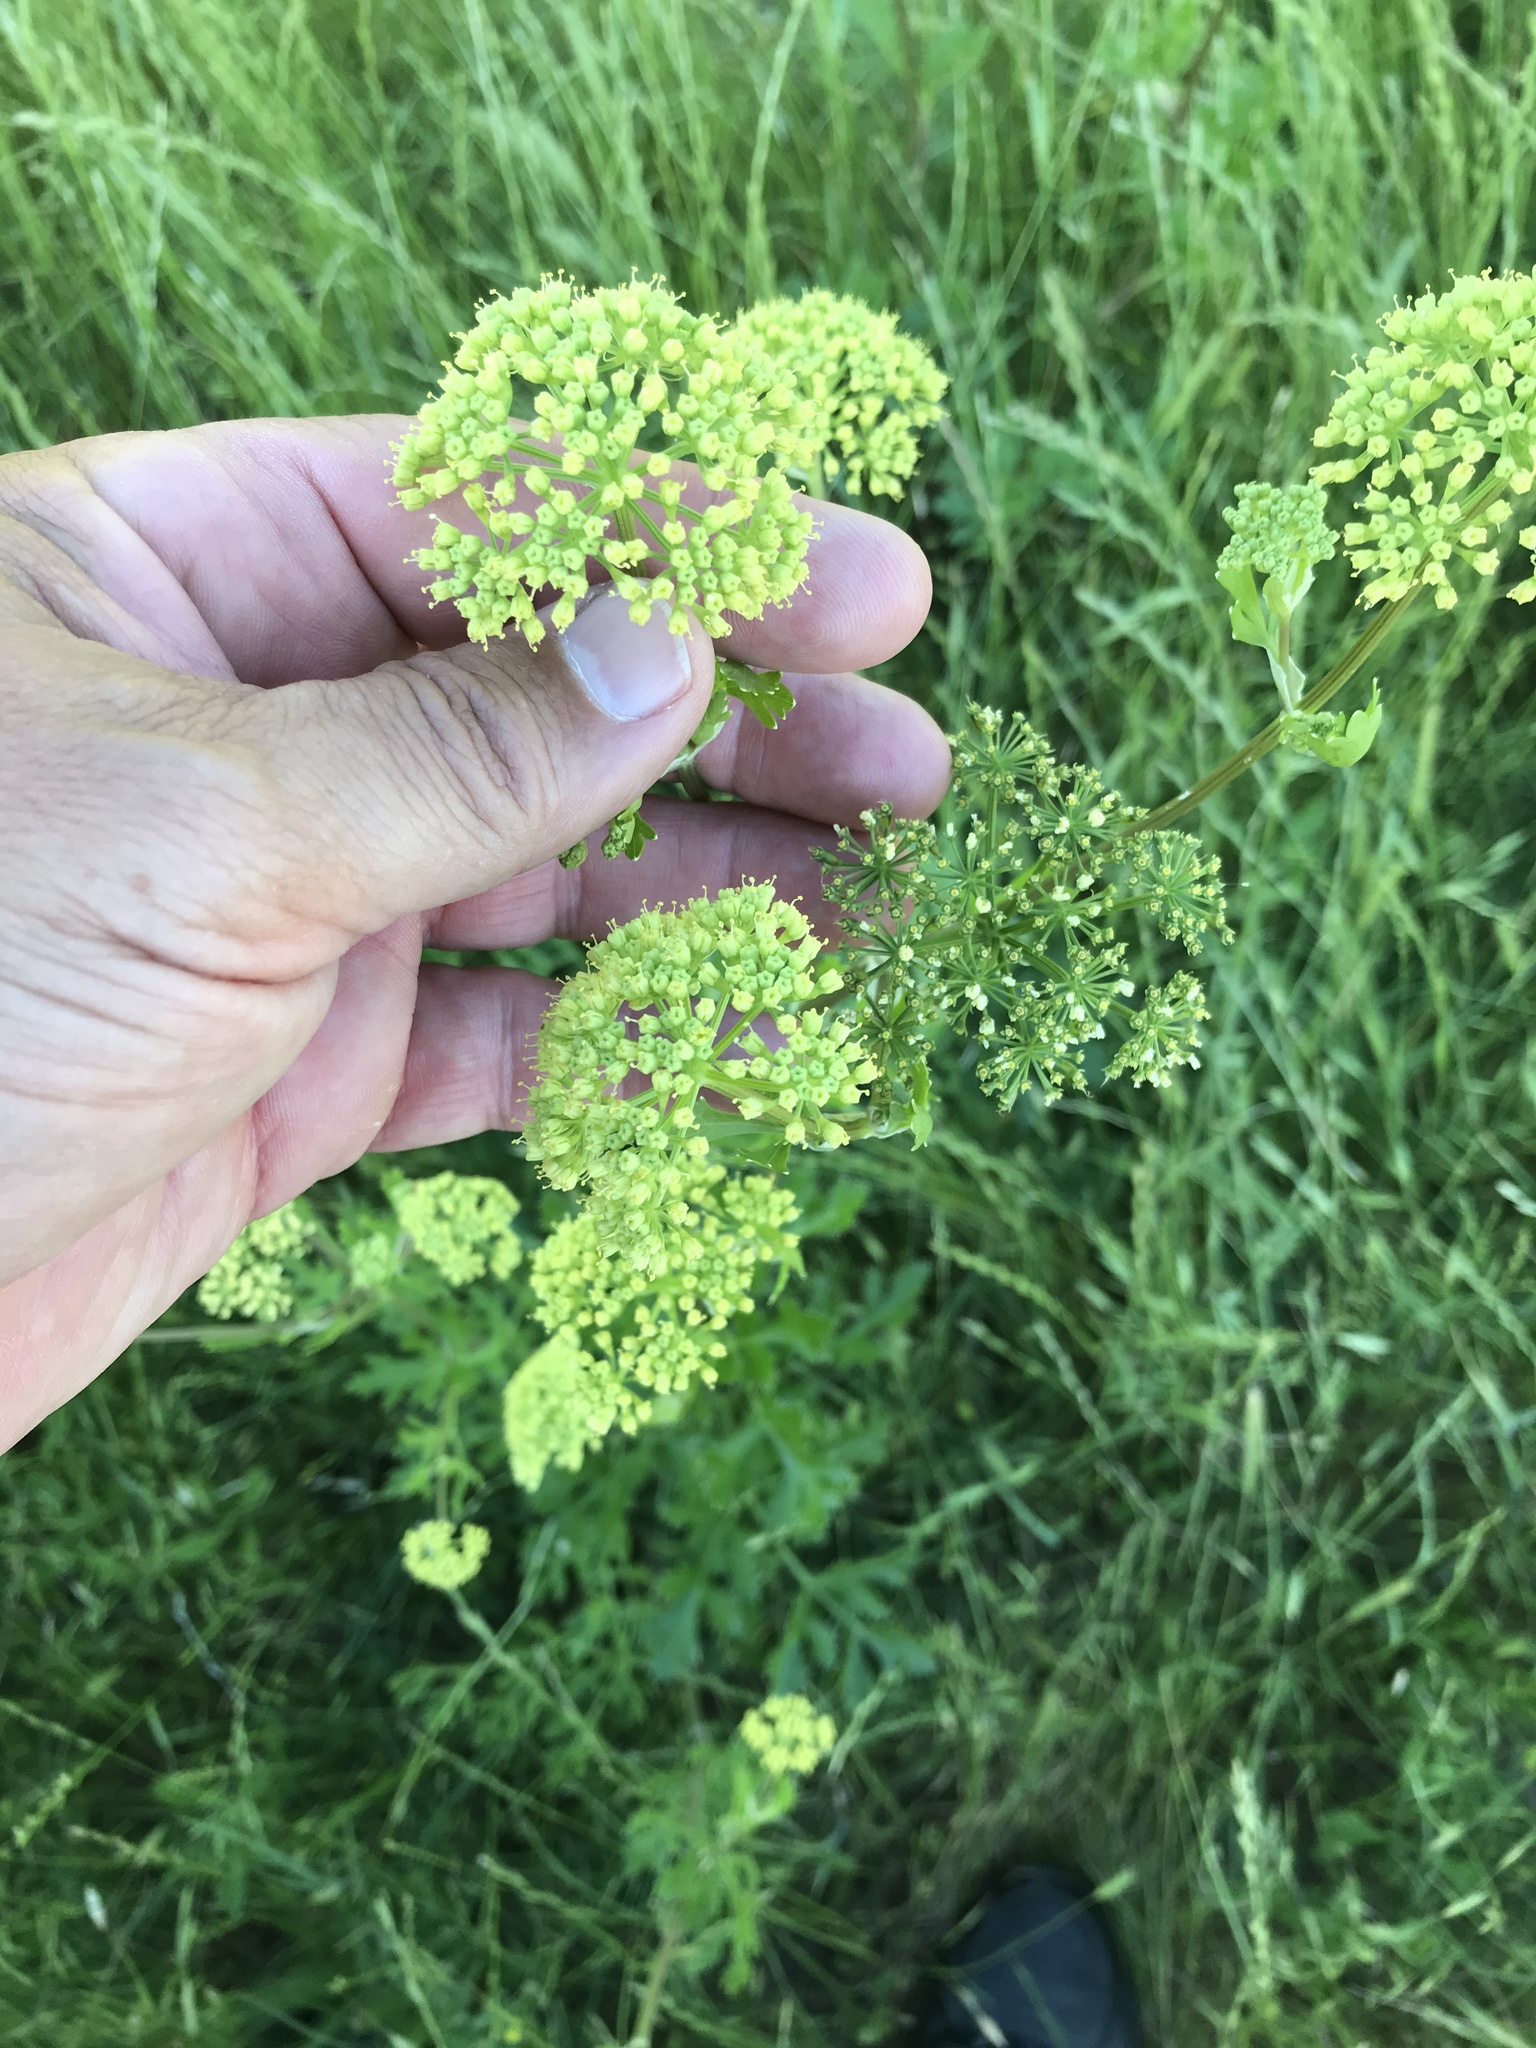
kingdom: Plantae
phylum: Tracheophyta
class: Magnoliopsida
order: Apiales
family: Apiaceae
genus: Polytaenia
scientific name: Polytaenia texana
